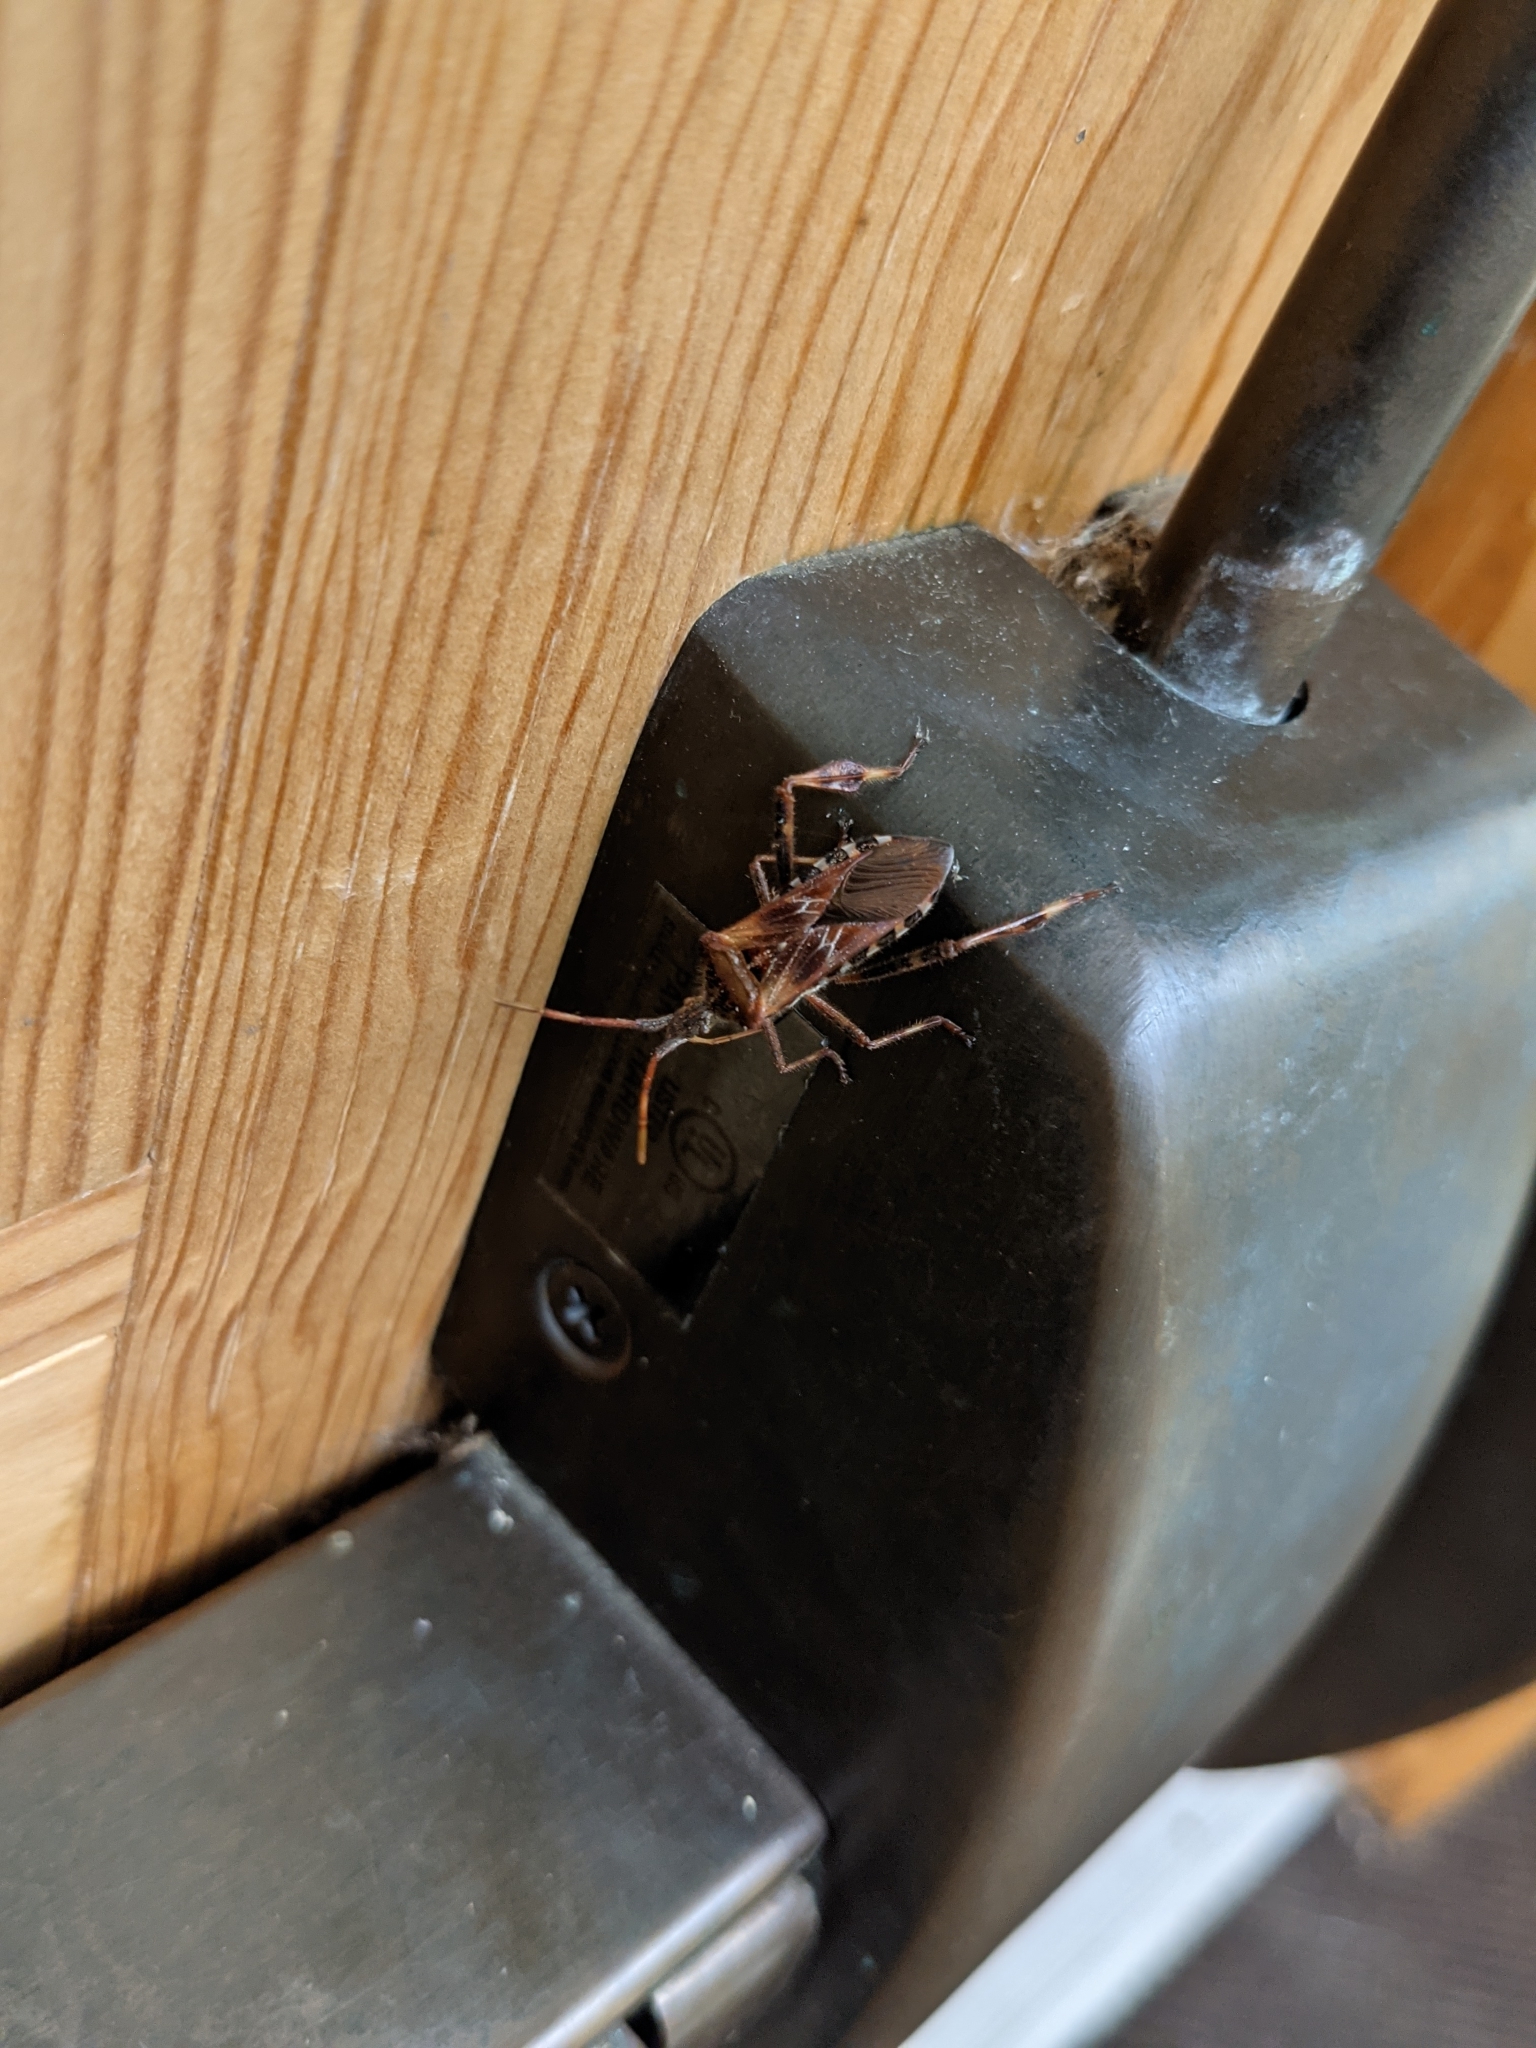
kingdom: Animalia
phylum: Arthropoda
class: Insecta
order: Hemiptera
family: Coreidae
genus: Leptoglossus
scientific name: Leptoglossus occidentalis
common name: Western conifer-seed bug
